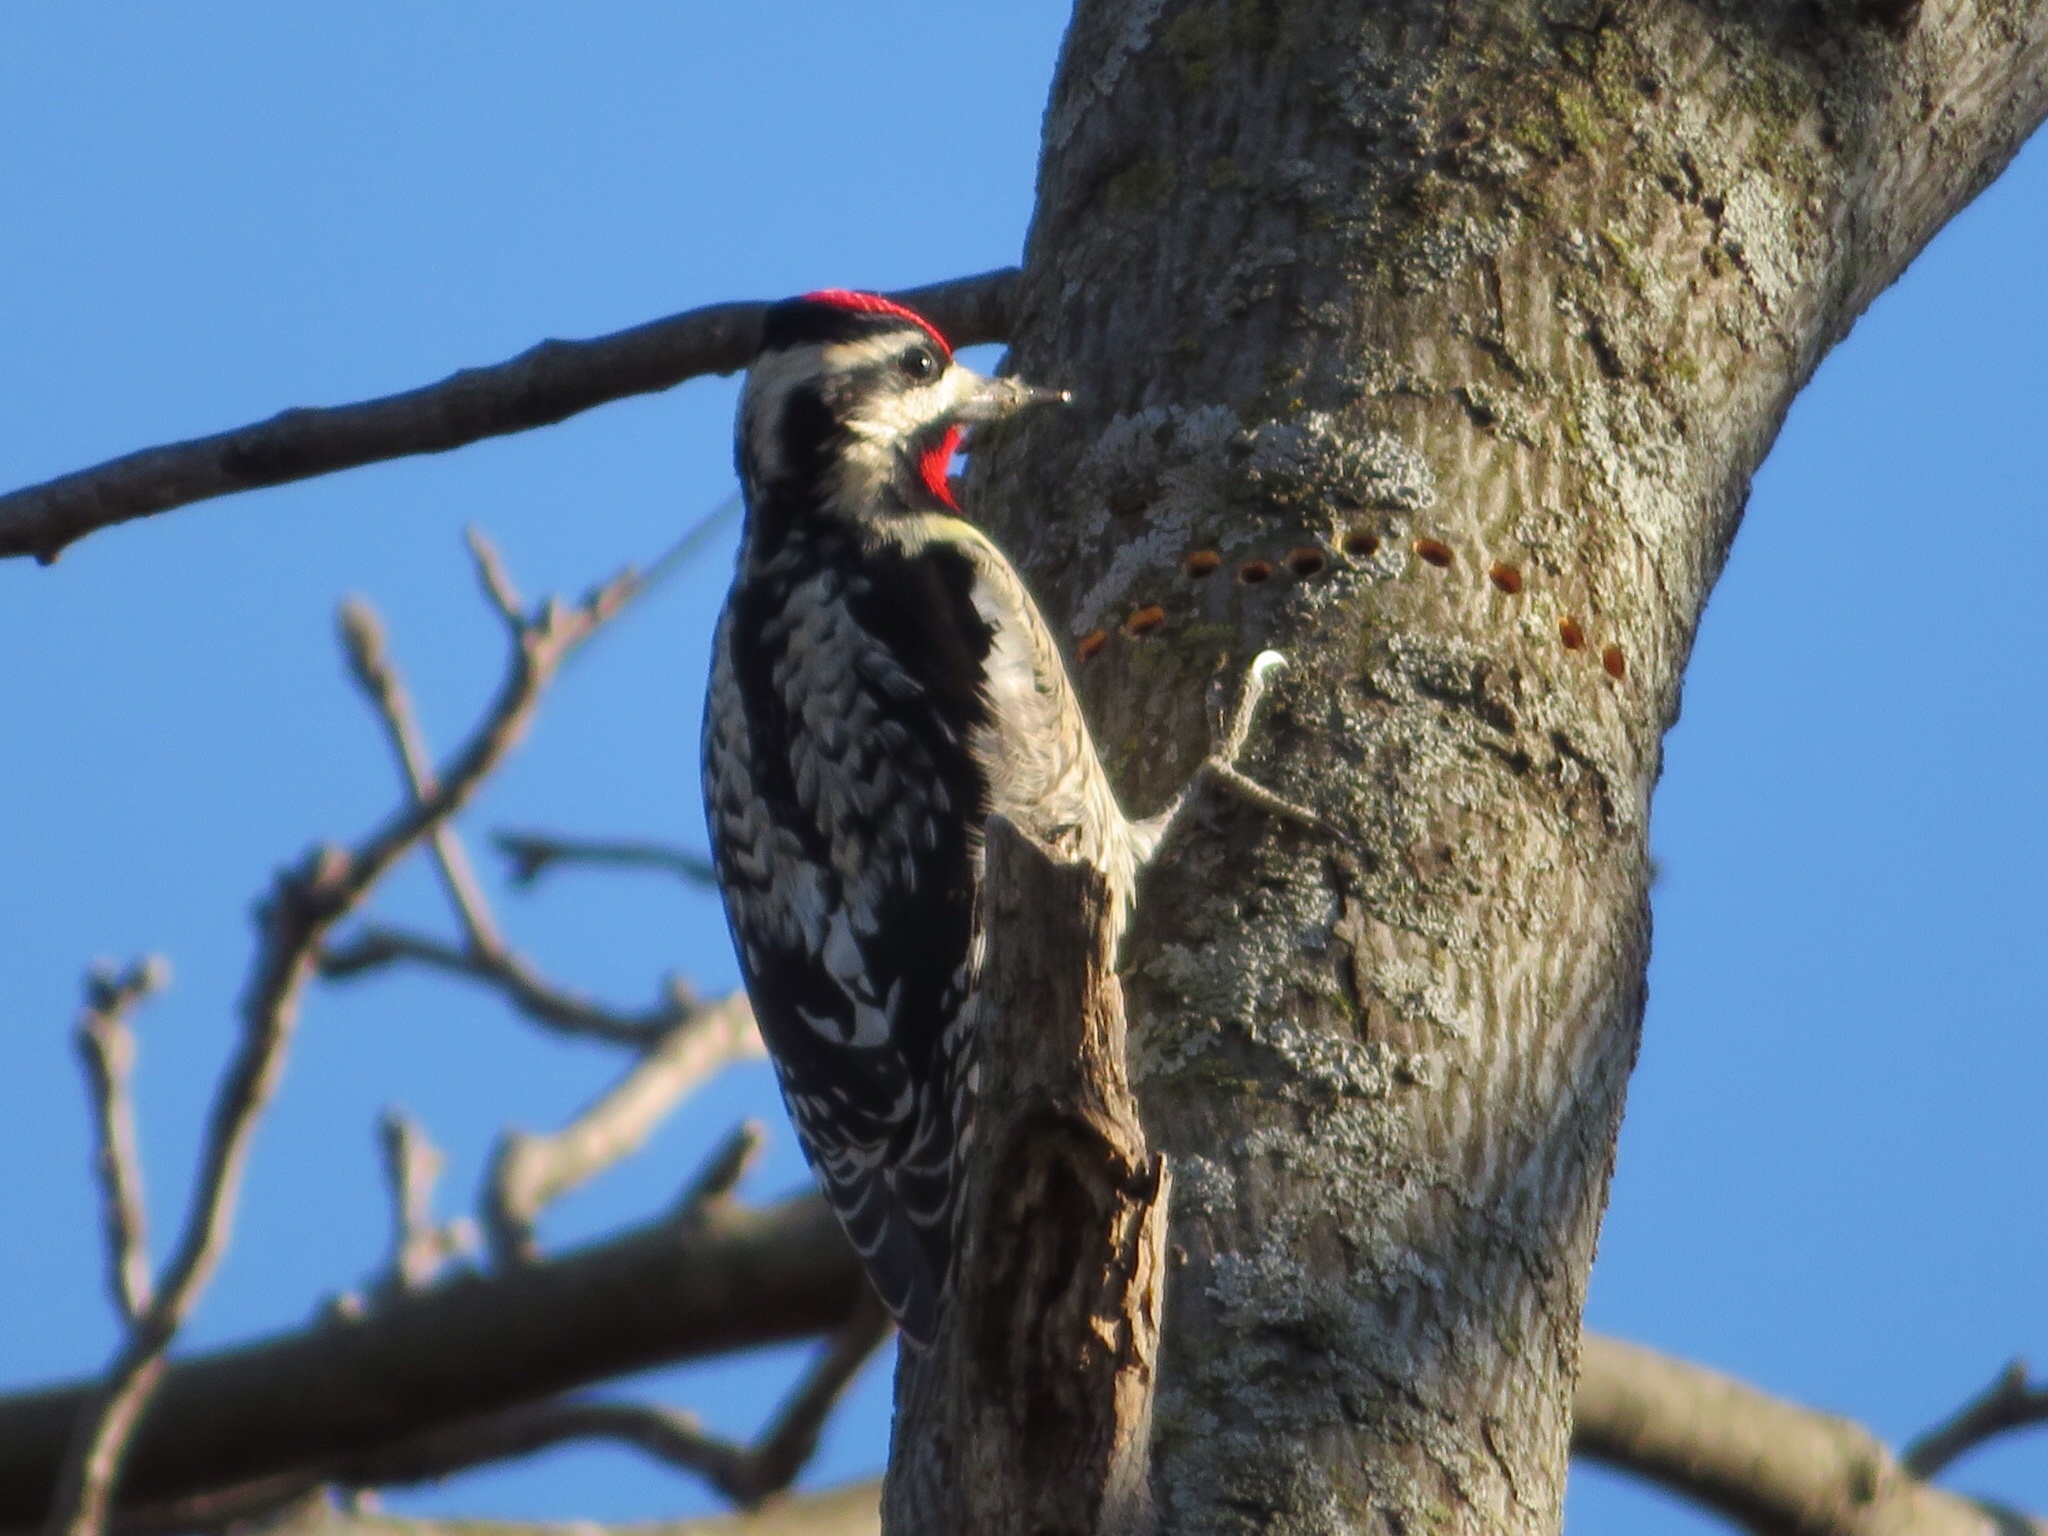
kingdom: Animalia
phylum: Chordata
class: Aves
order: Piciformes
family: Picidae
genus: Sphyrapicus
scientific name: Sphyrapicus varius
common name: Yellow-bellied sapsucker
